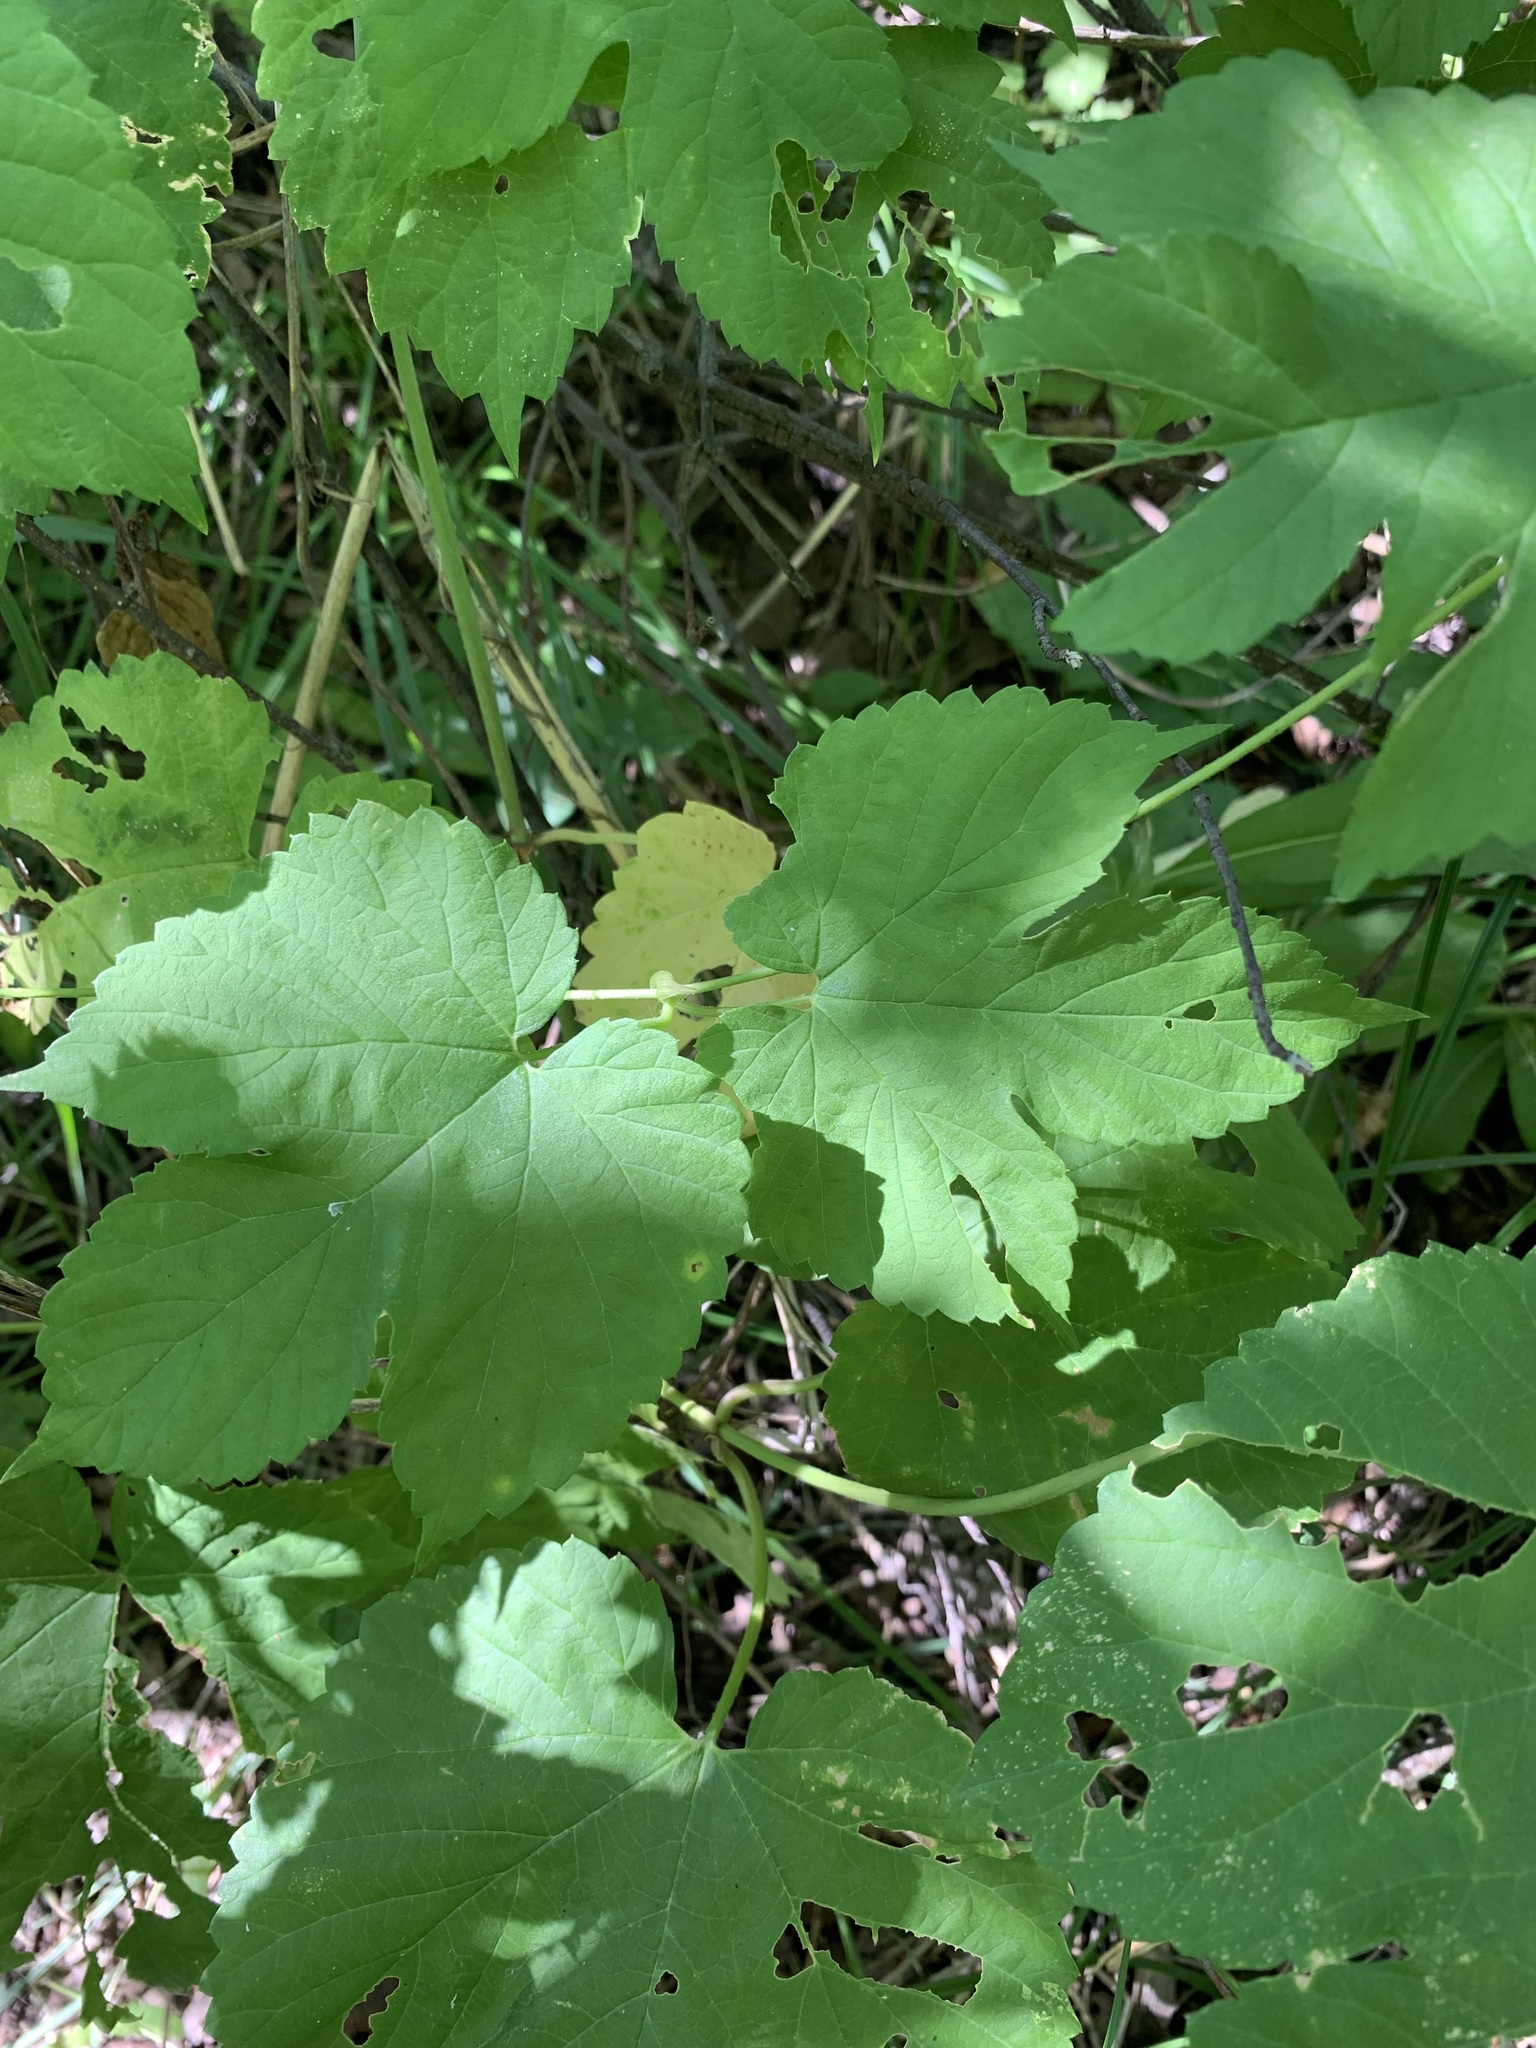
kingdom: Plantae
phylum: Tracheophyta
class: Magnoliopsida
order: Rosales
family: Cannabaceae
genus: Humulus
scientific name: Humulus lupulus
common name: Hop
